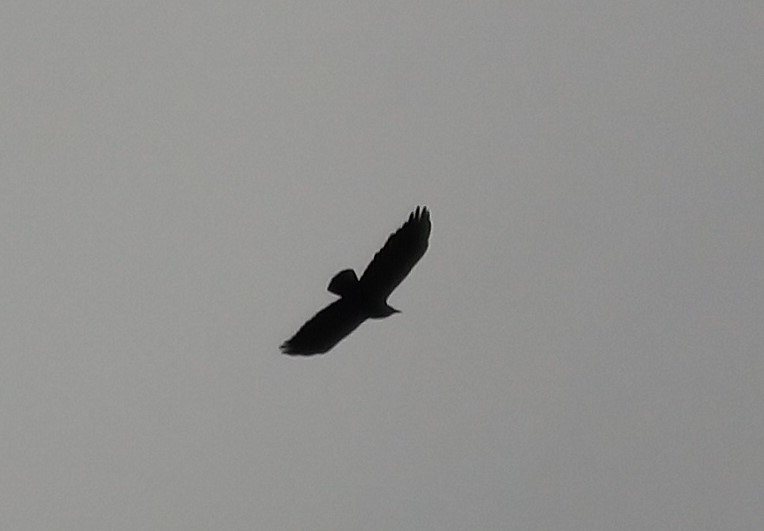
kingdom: Animalia
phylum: Chordata
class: Aves
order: Passeriformes
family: Corvidae
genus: Corvus
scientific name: Corvus brachyrhynchos
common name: American crow
